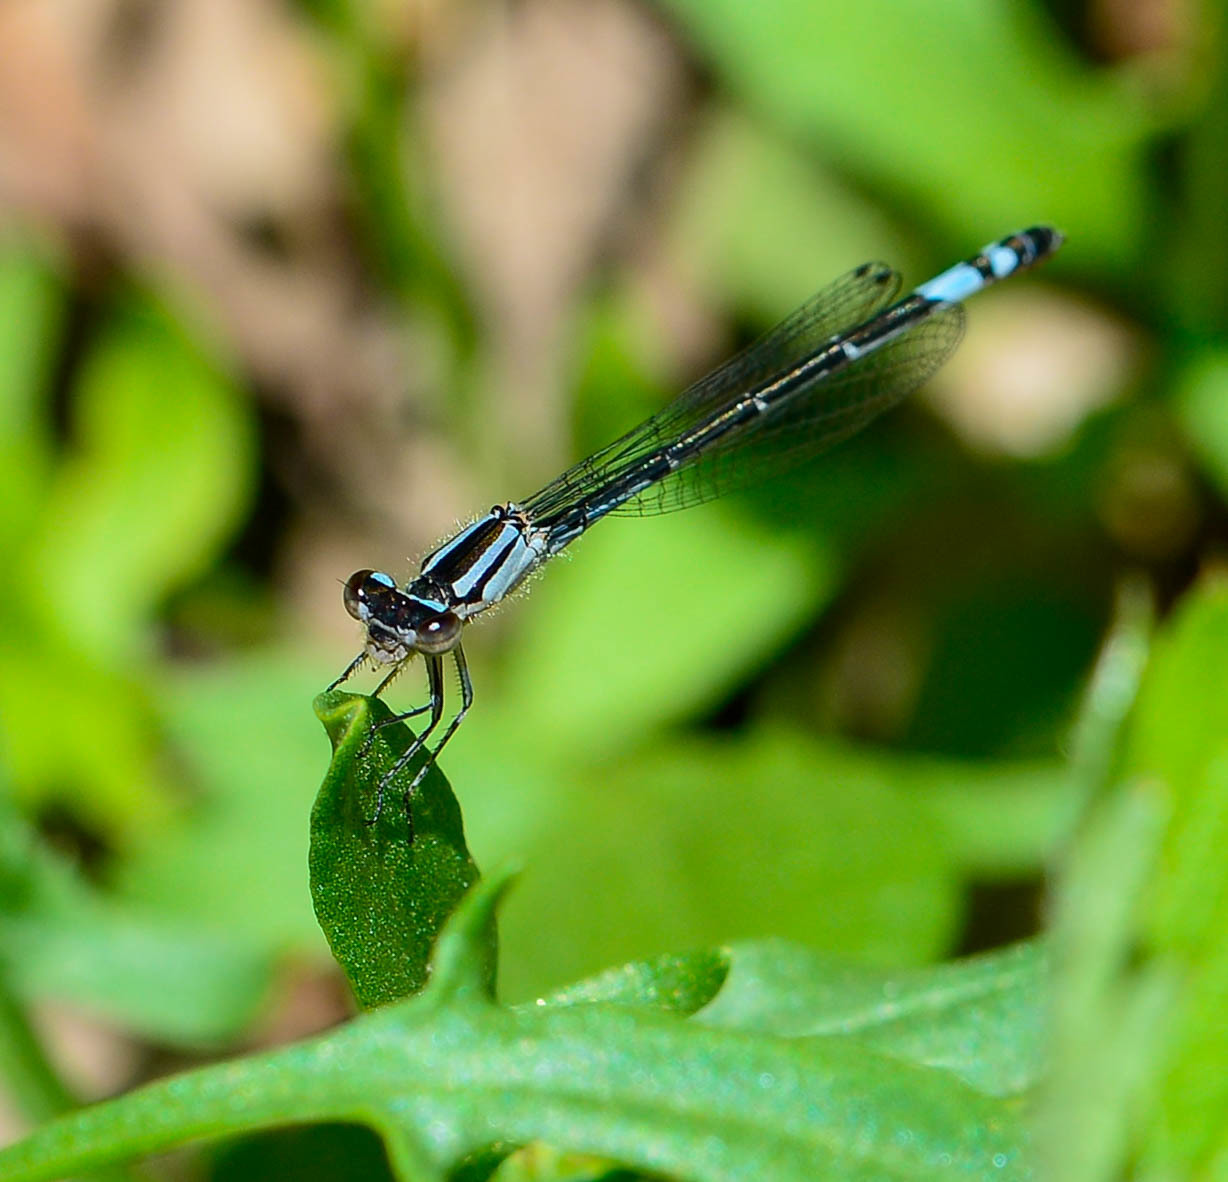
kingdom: Animalia
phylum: Arthropoda
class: Insecta
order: Odonata
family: Coenagrionidae
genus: Enallagma
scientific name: Enallagma aspersum
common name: Azure bluet
